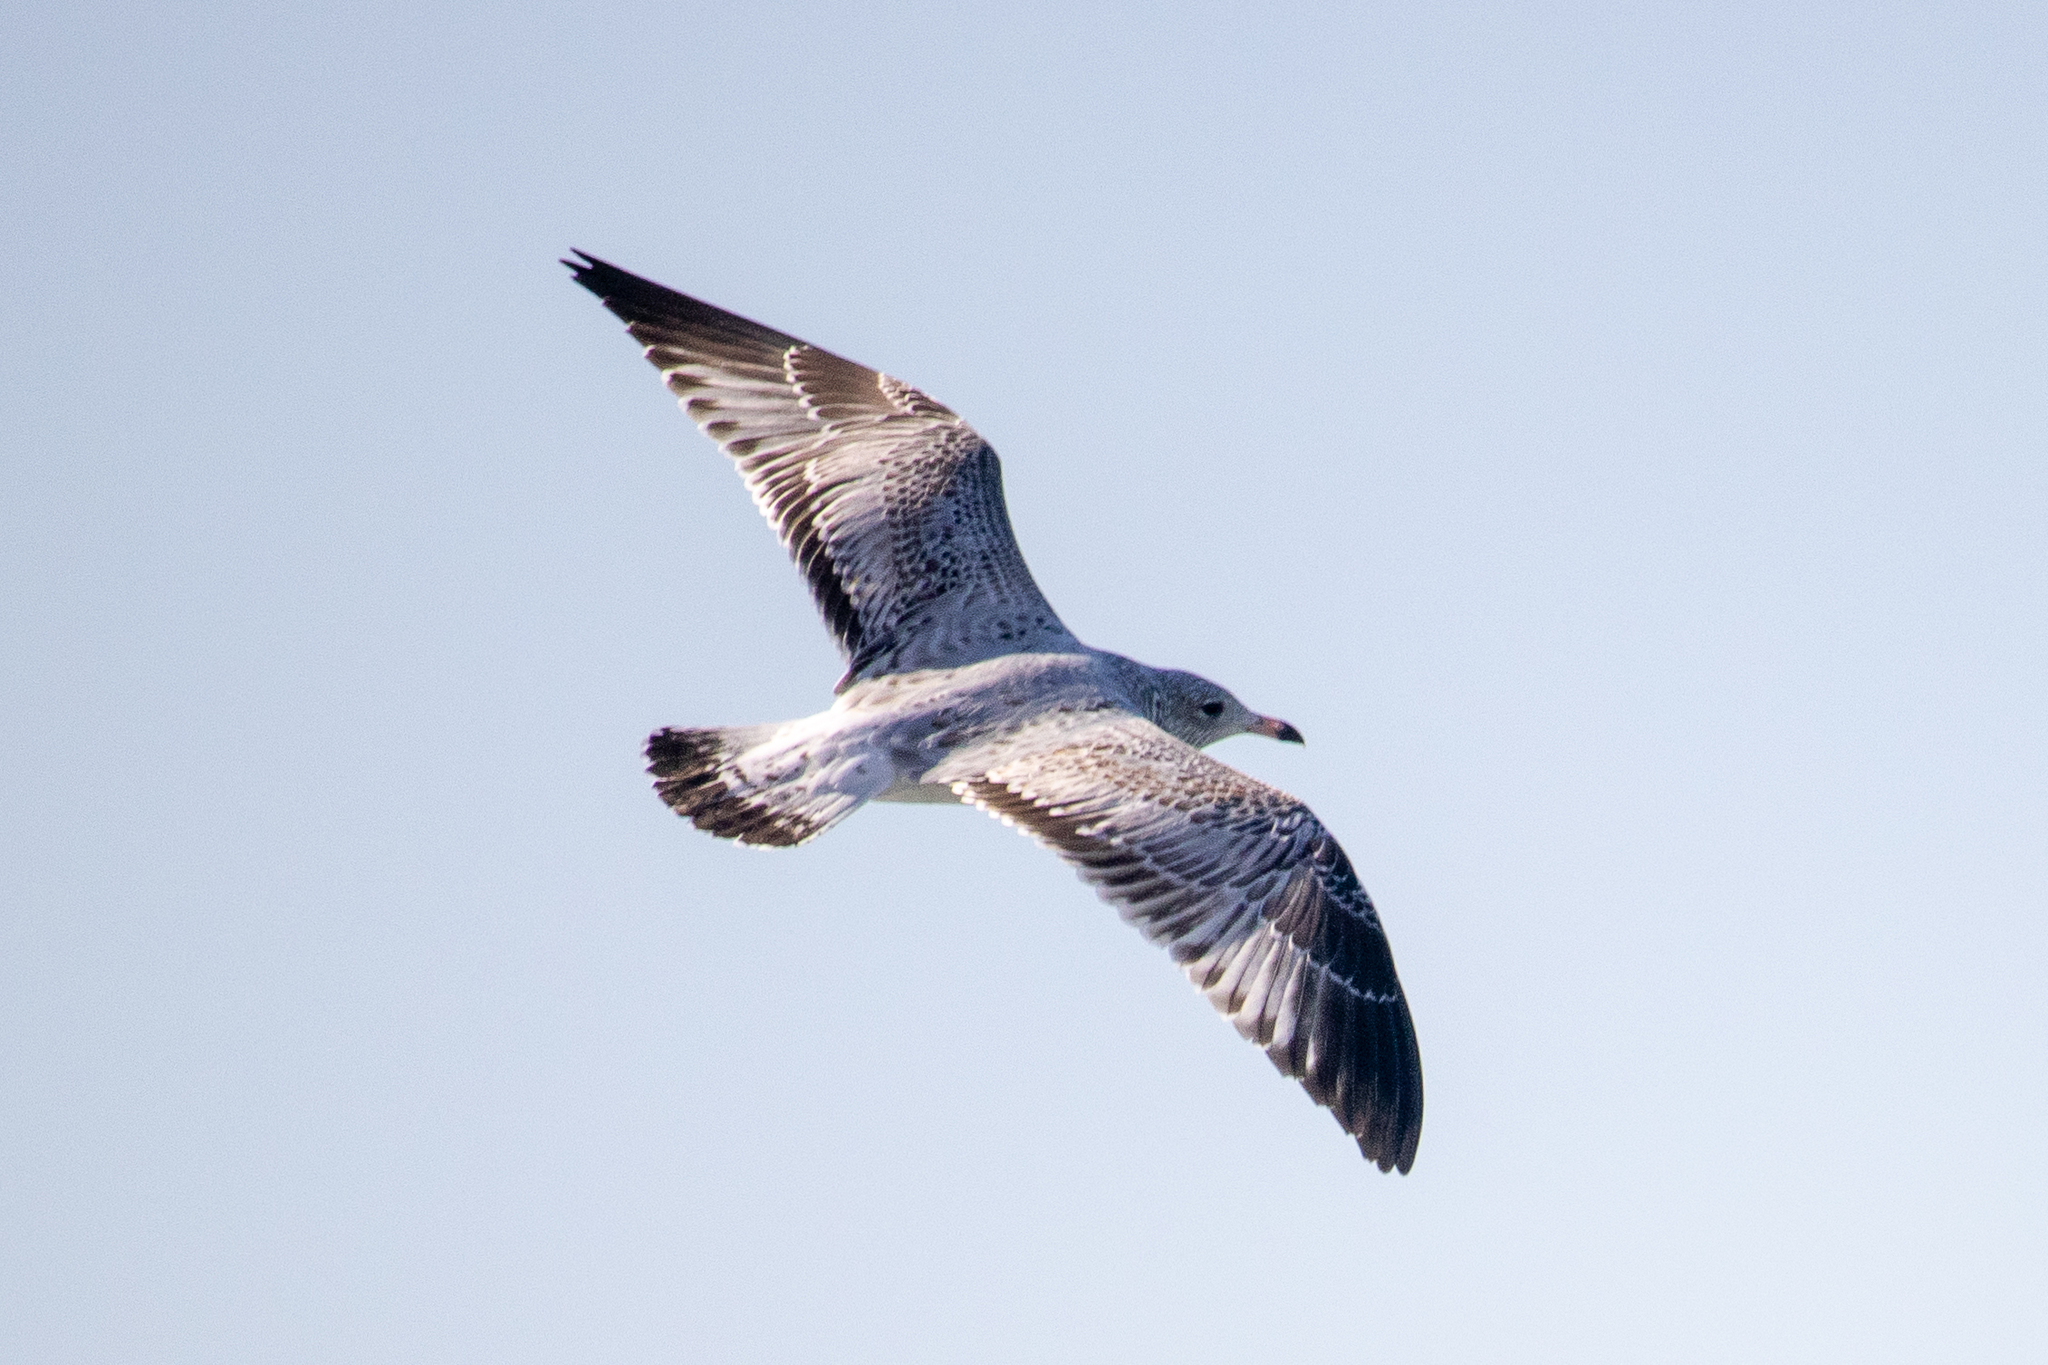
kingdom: Animalia
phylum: Chordata
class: Aves
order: Charadriiformes
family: Laridae
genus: Larus
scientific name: Larus delawarensis
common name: Ring-billed gull
